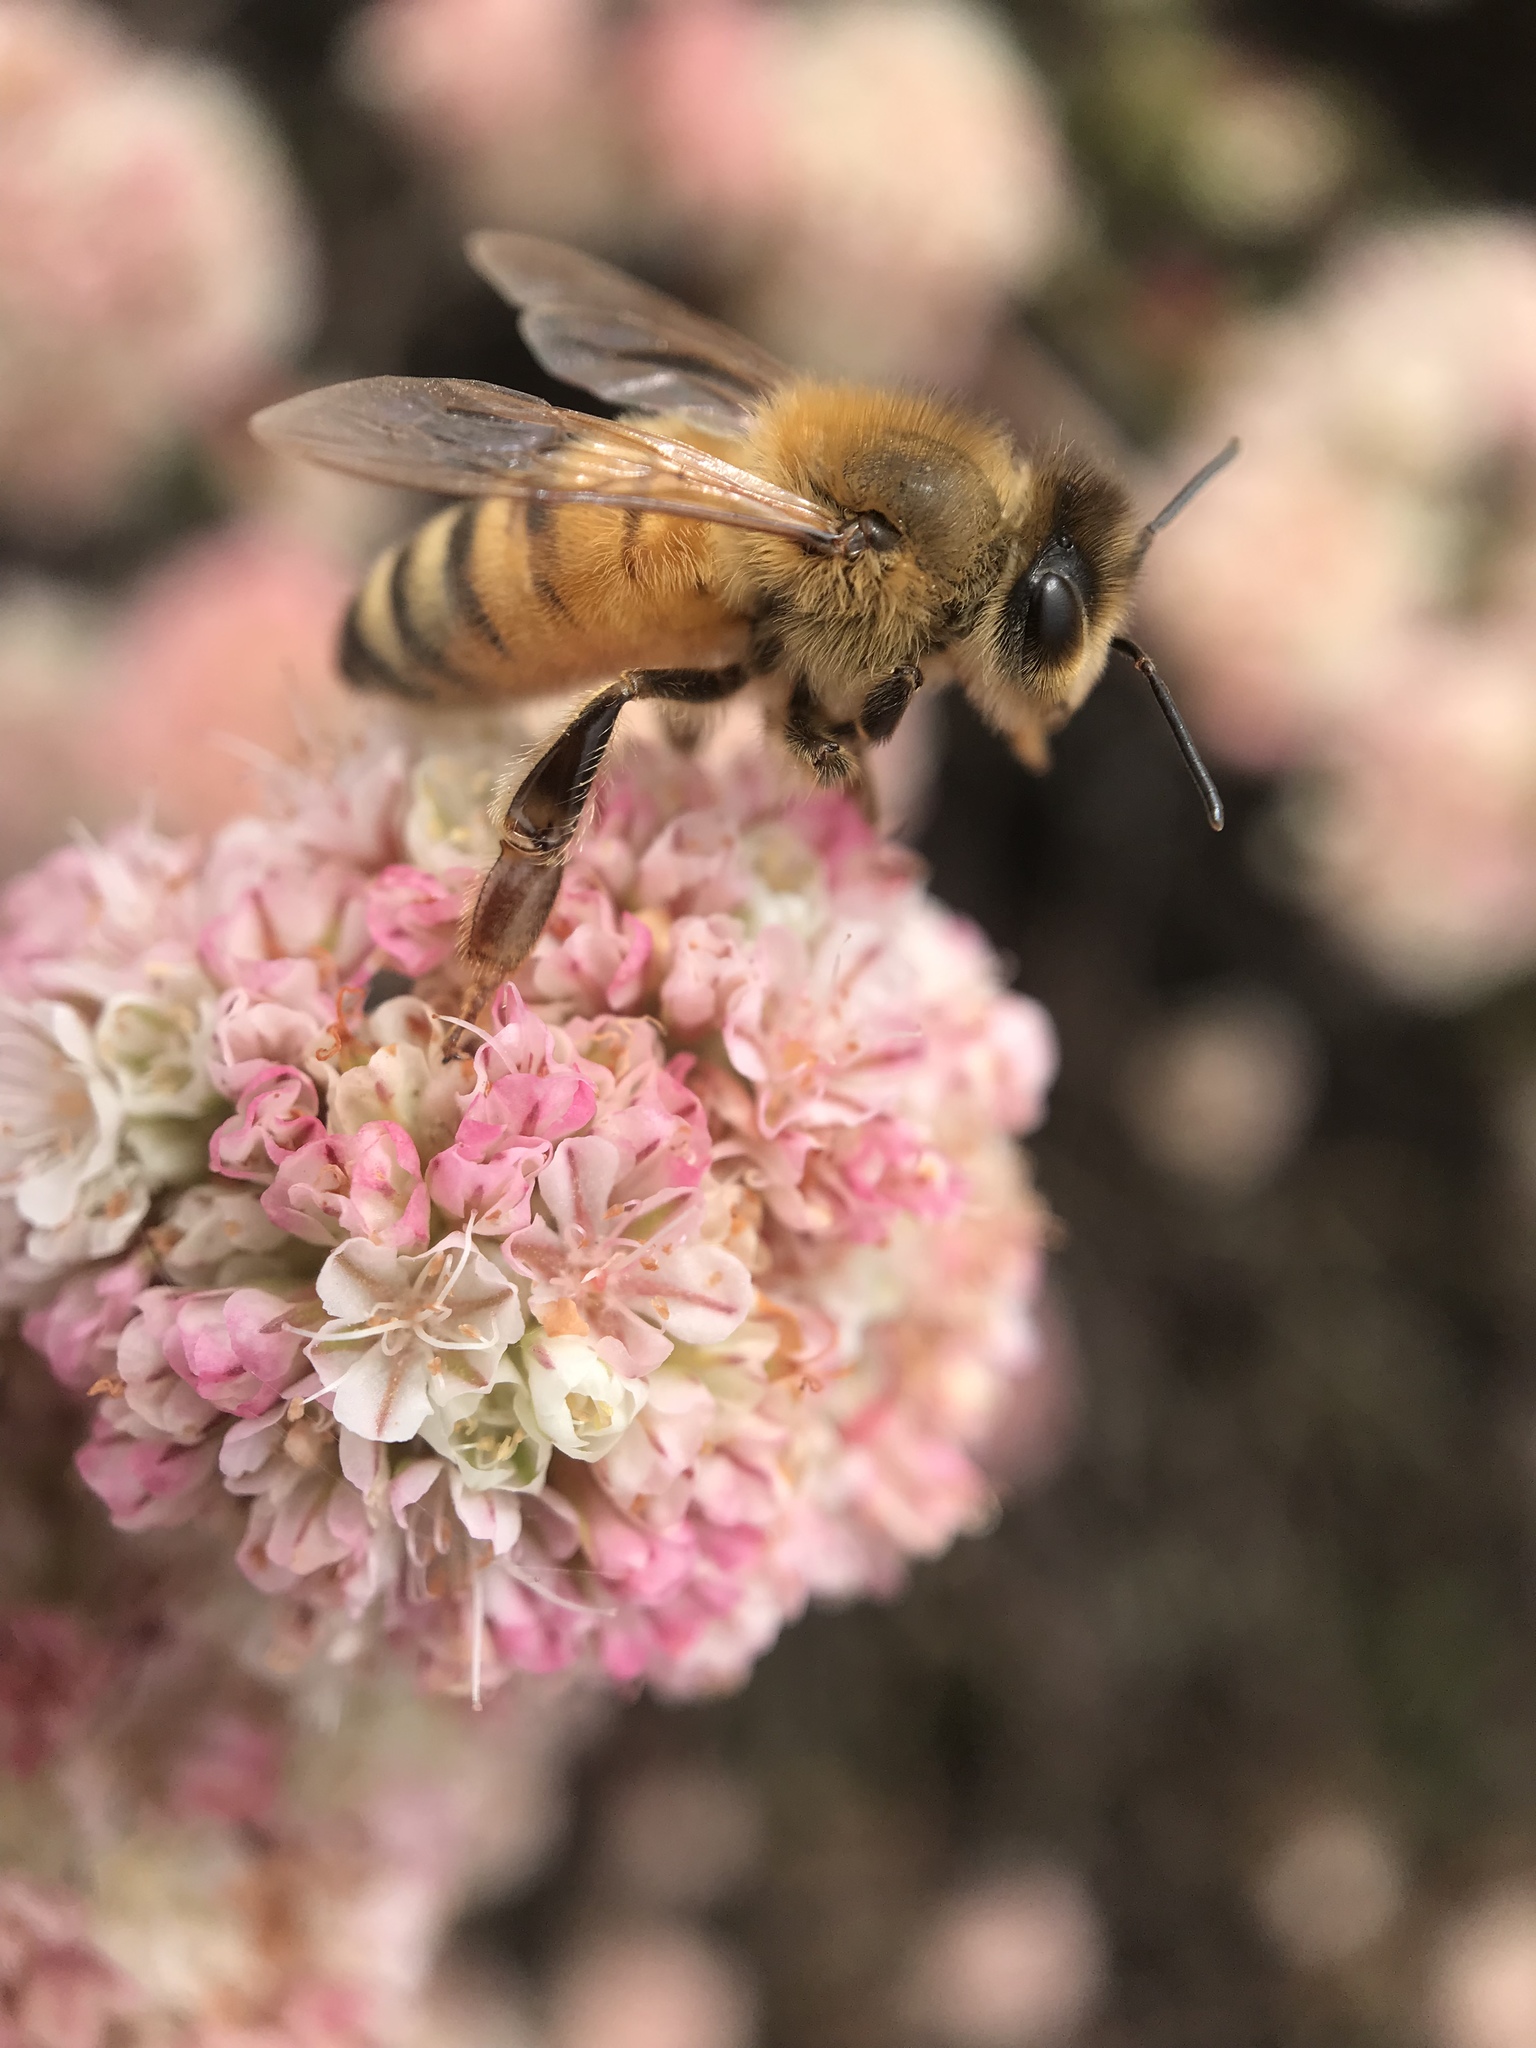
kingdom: Plantae
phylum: Tracheophyta
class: Magnoliopsida
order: Caryophyllales
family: Polygonaceae
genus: Eriogonum
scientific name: Eriogonum parvifolium
